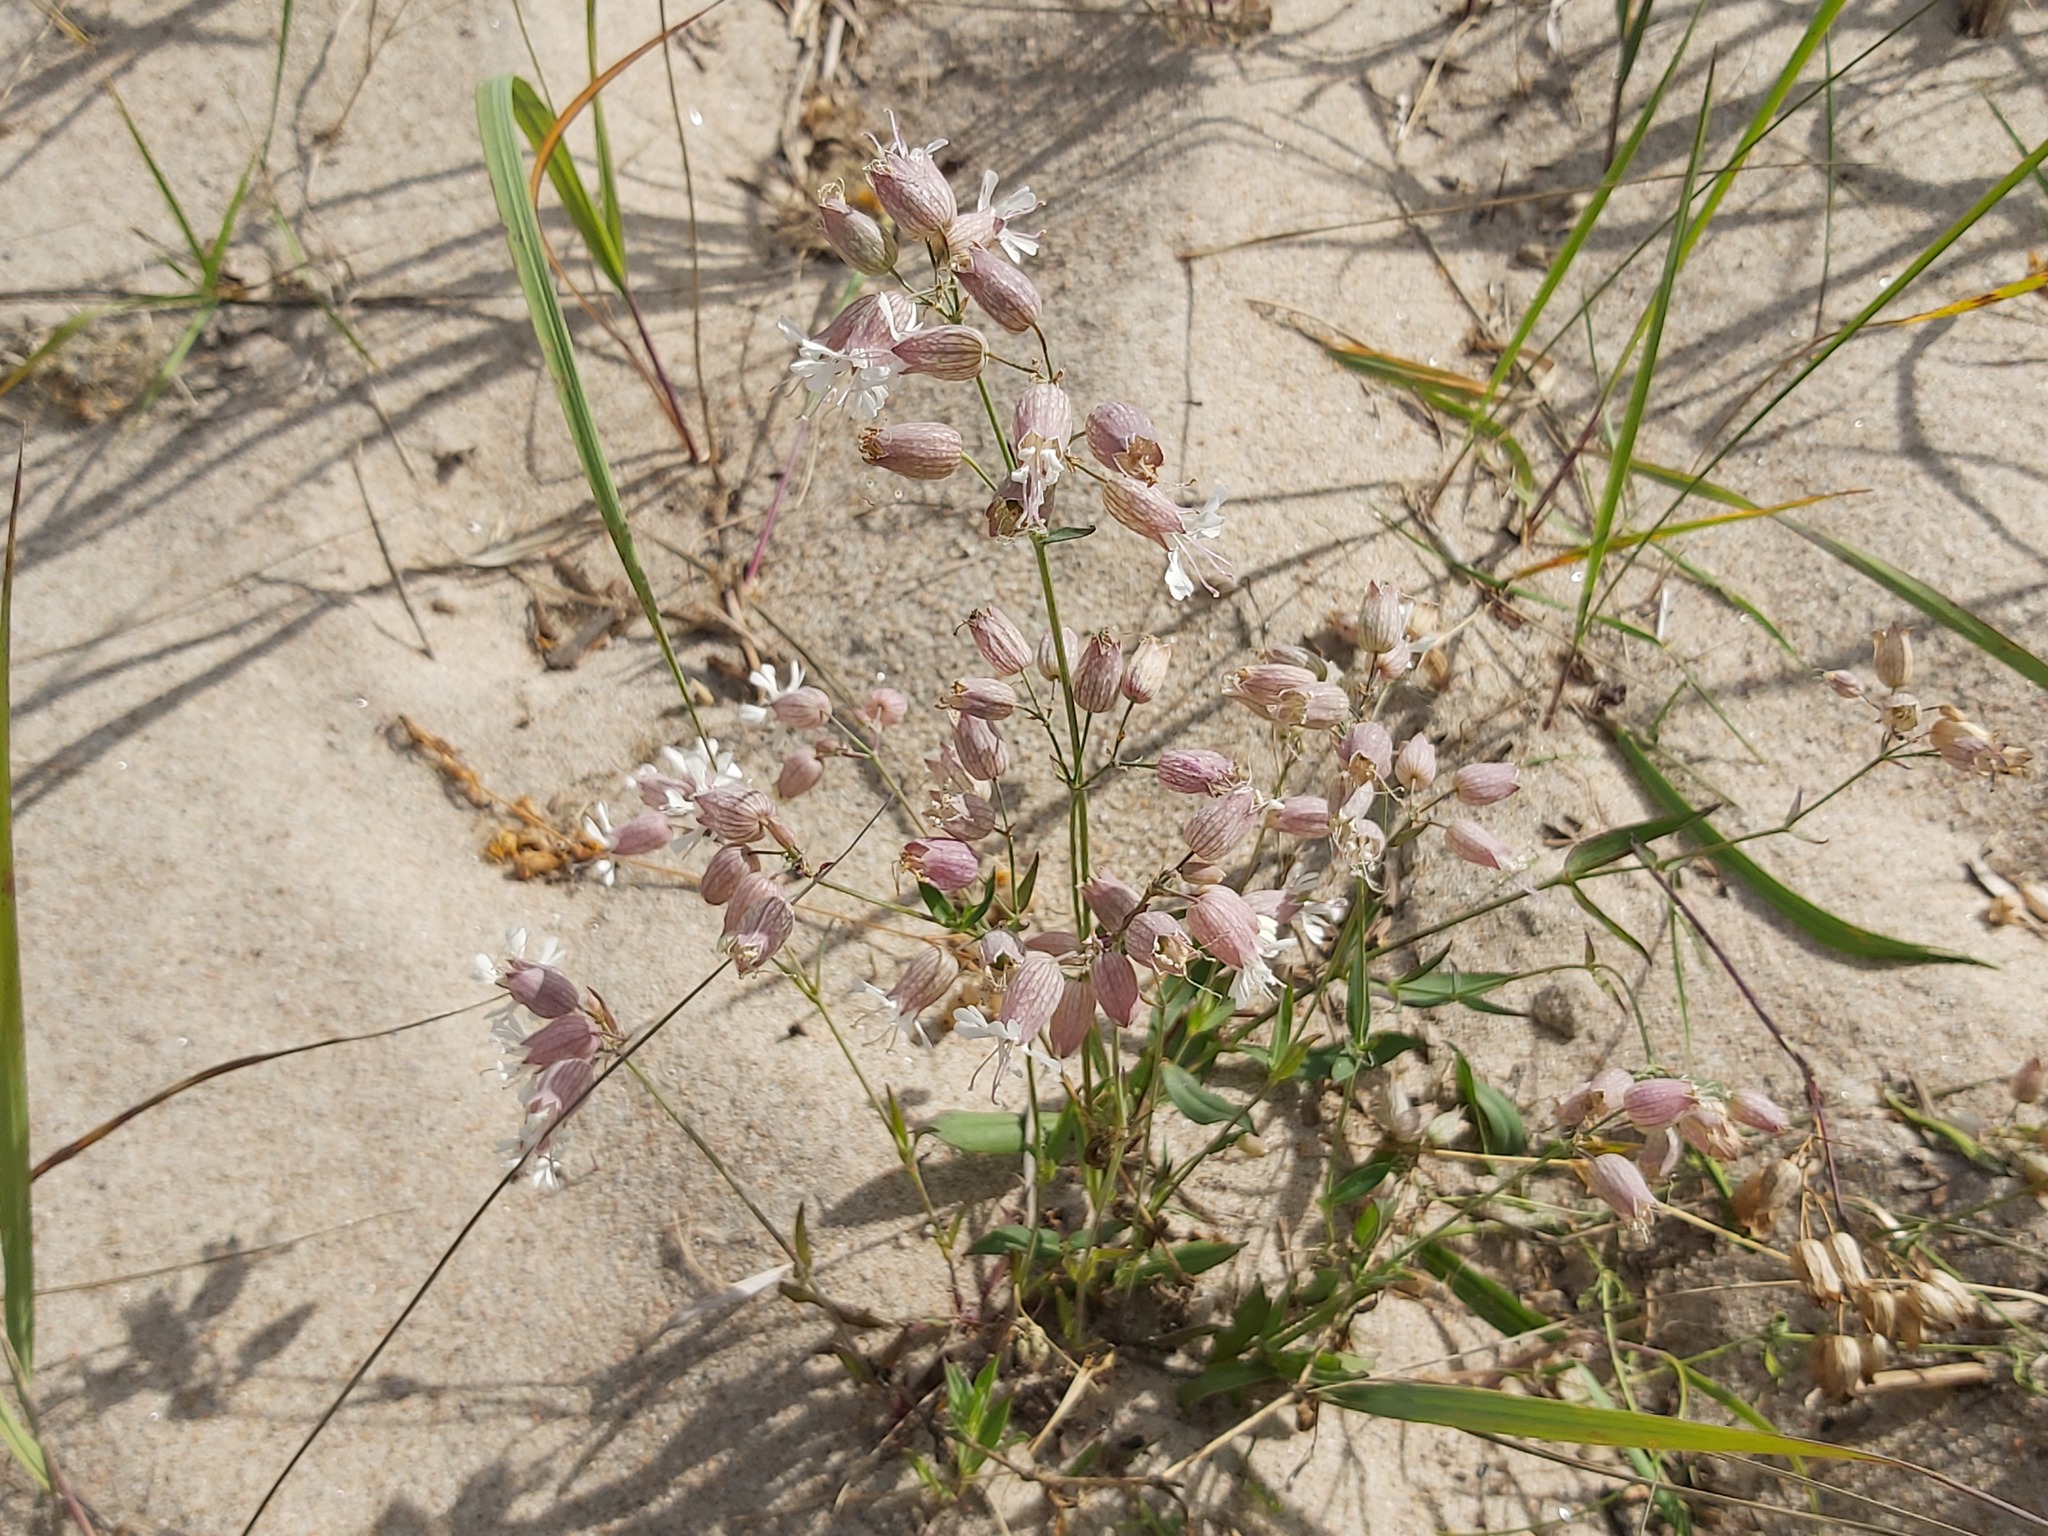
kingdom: Plantae
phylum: Tracheophyta
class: Magnoliopsida
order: Caryophyllales
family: Caryophyllaceae
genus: Silene
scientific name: Silene vulgaris
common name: Bladder campion
